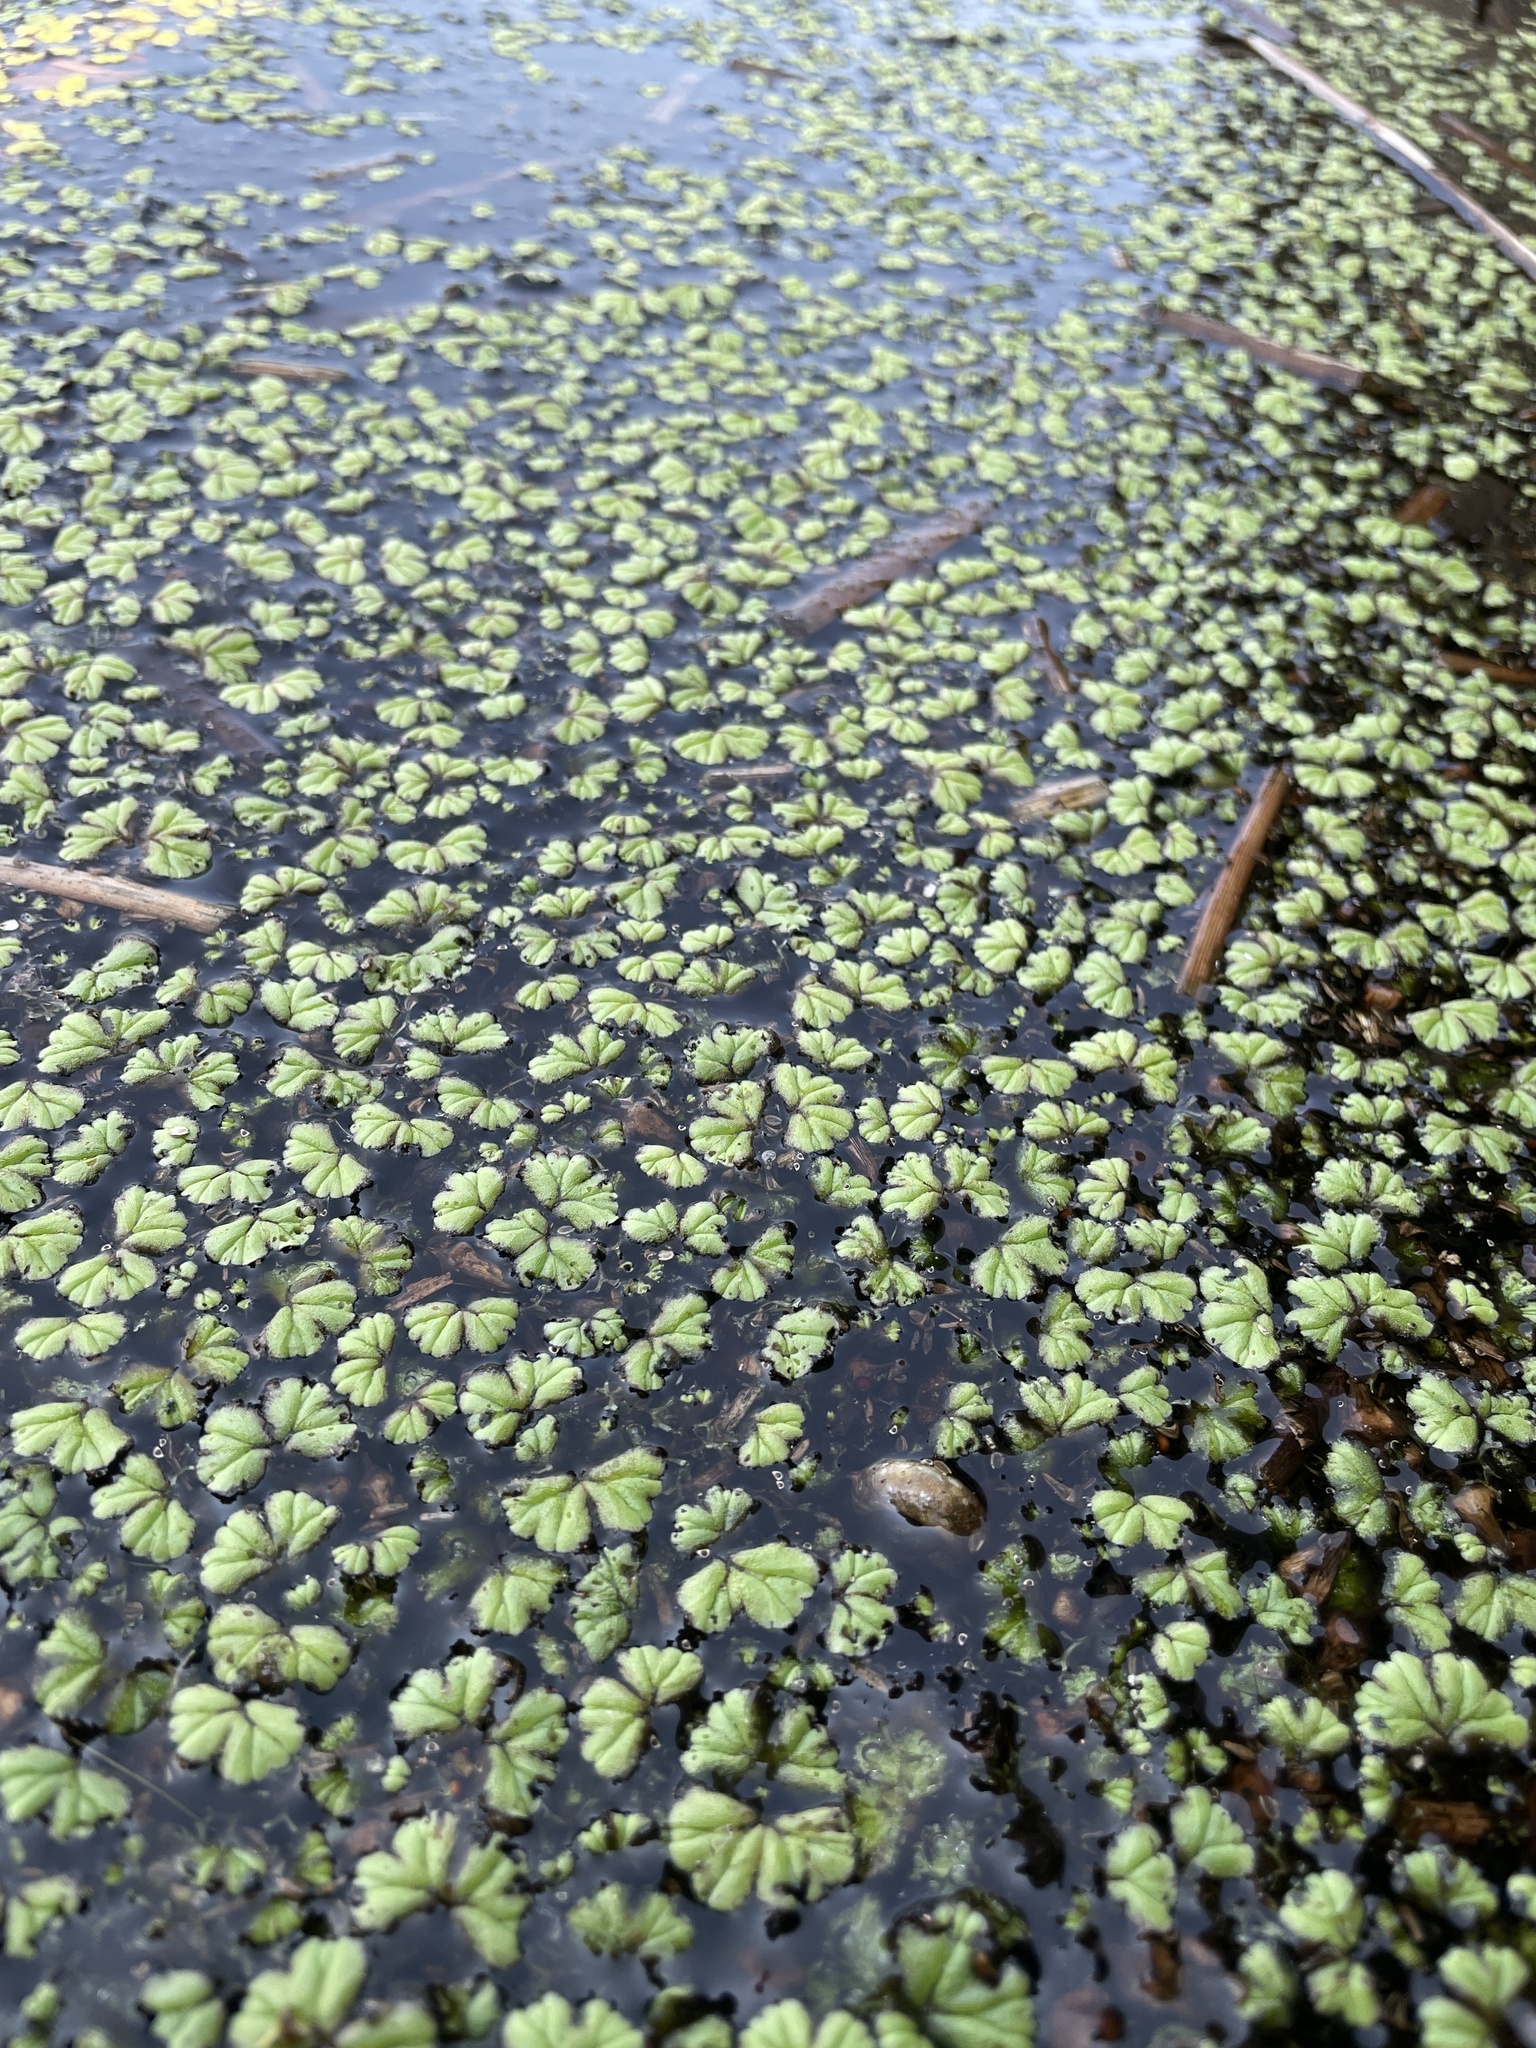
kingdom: Plantae
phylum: Marchantiophyta
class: Marchantiopsida
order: Marchantiales
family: Ricciaceae
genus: Ricciocarpos
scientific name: Ricciocarpos natans
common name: Purple-fringed liverwort
